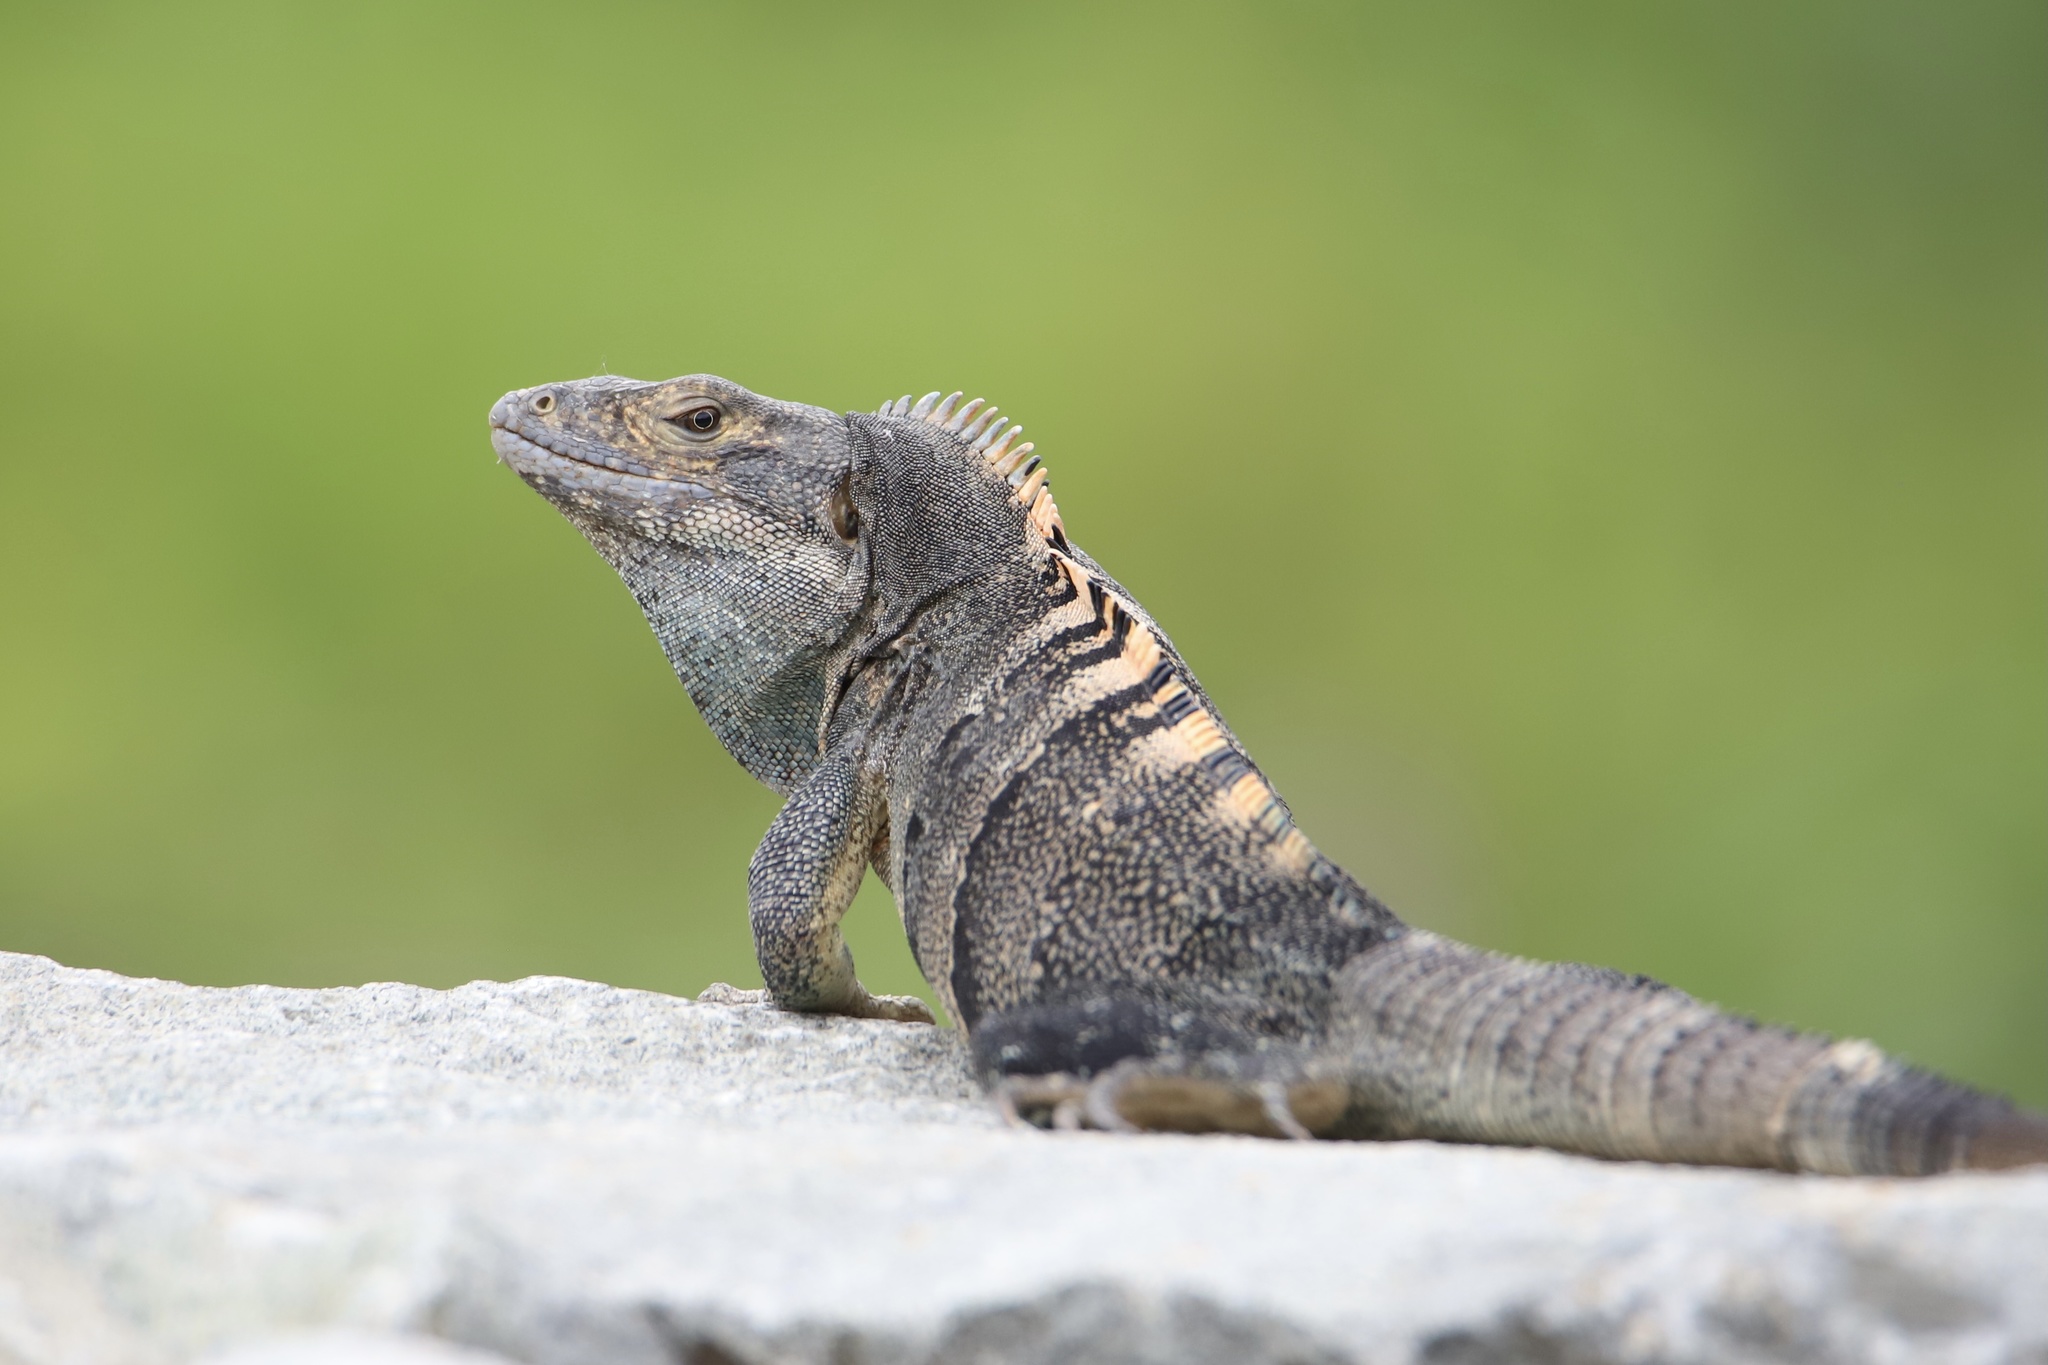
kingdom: Animalia
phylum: Chordata
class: Squamata
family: Iguanidae
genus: Ctenosaura
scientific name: Ctenosaura similis
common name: Black spiny-tailed iguana
